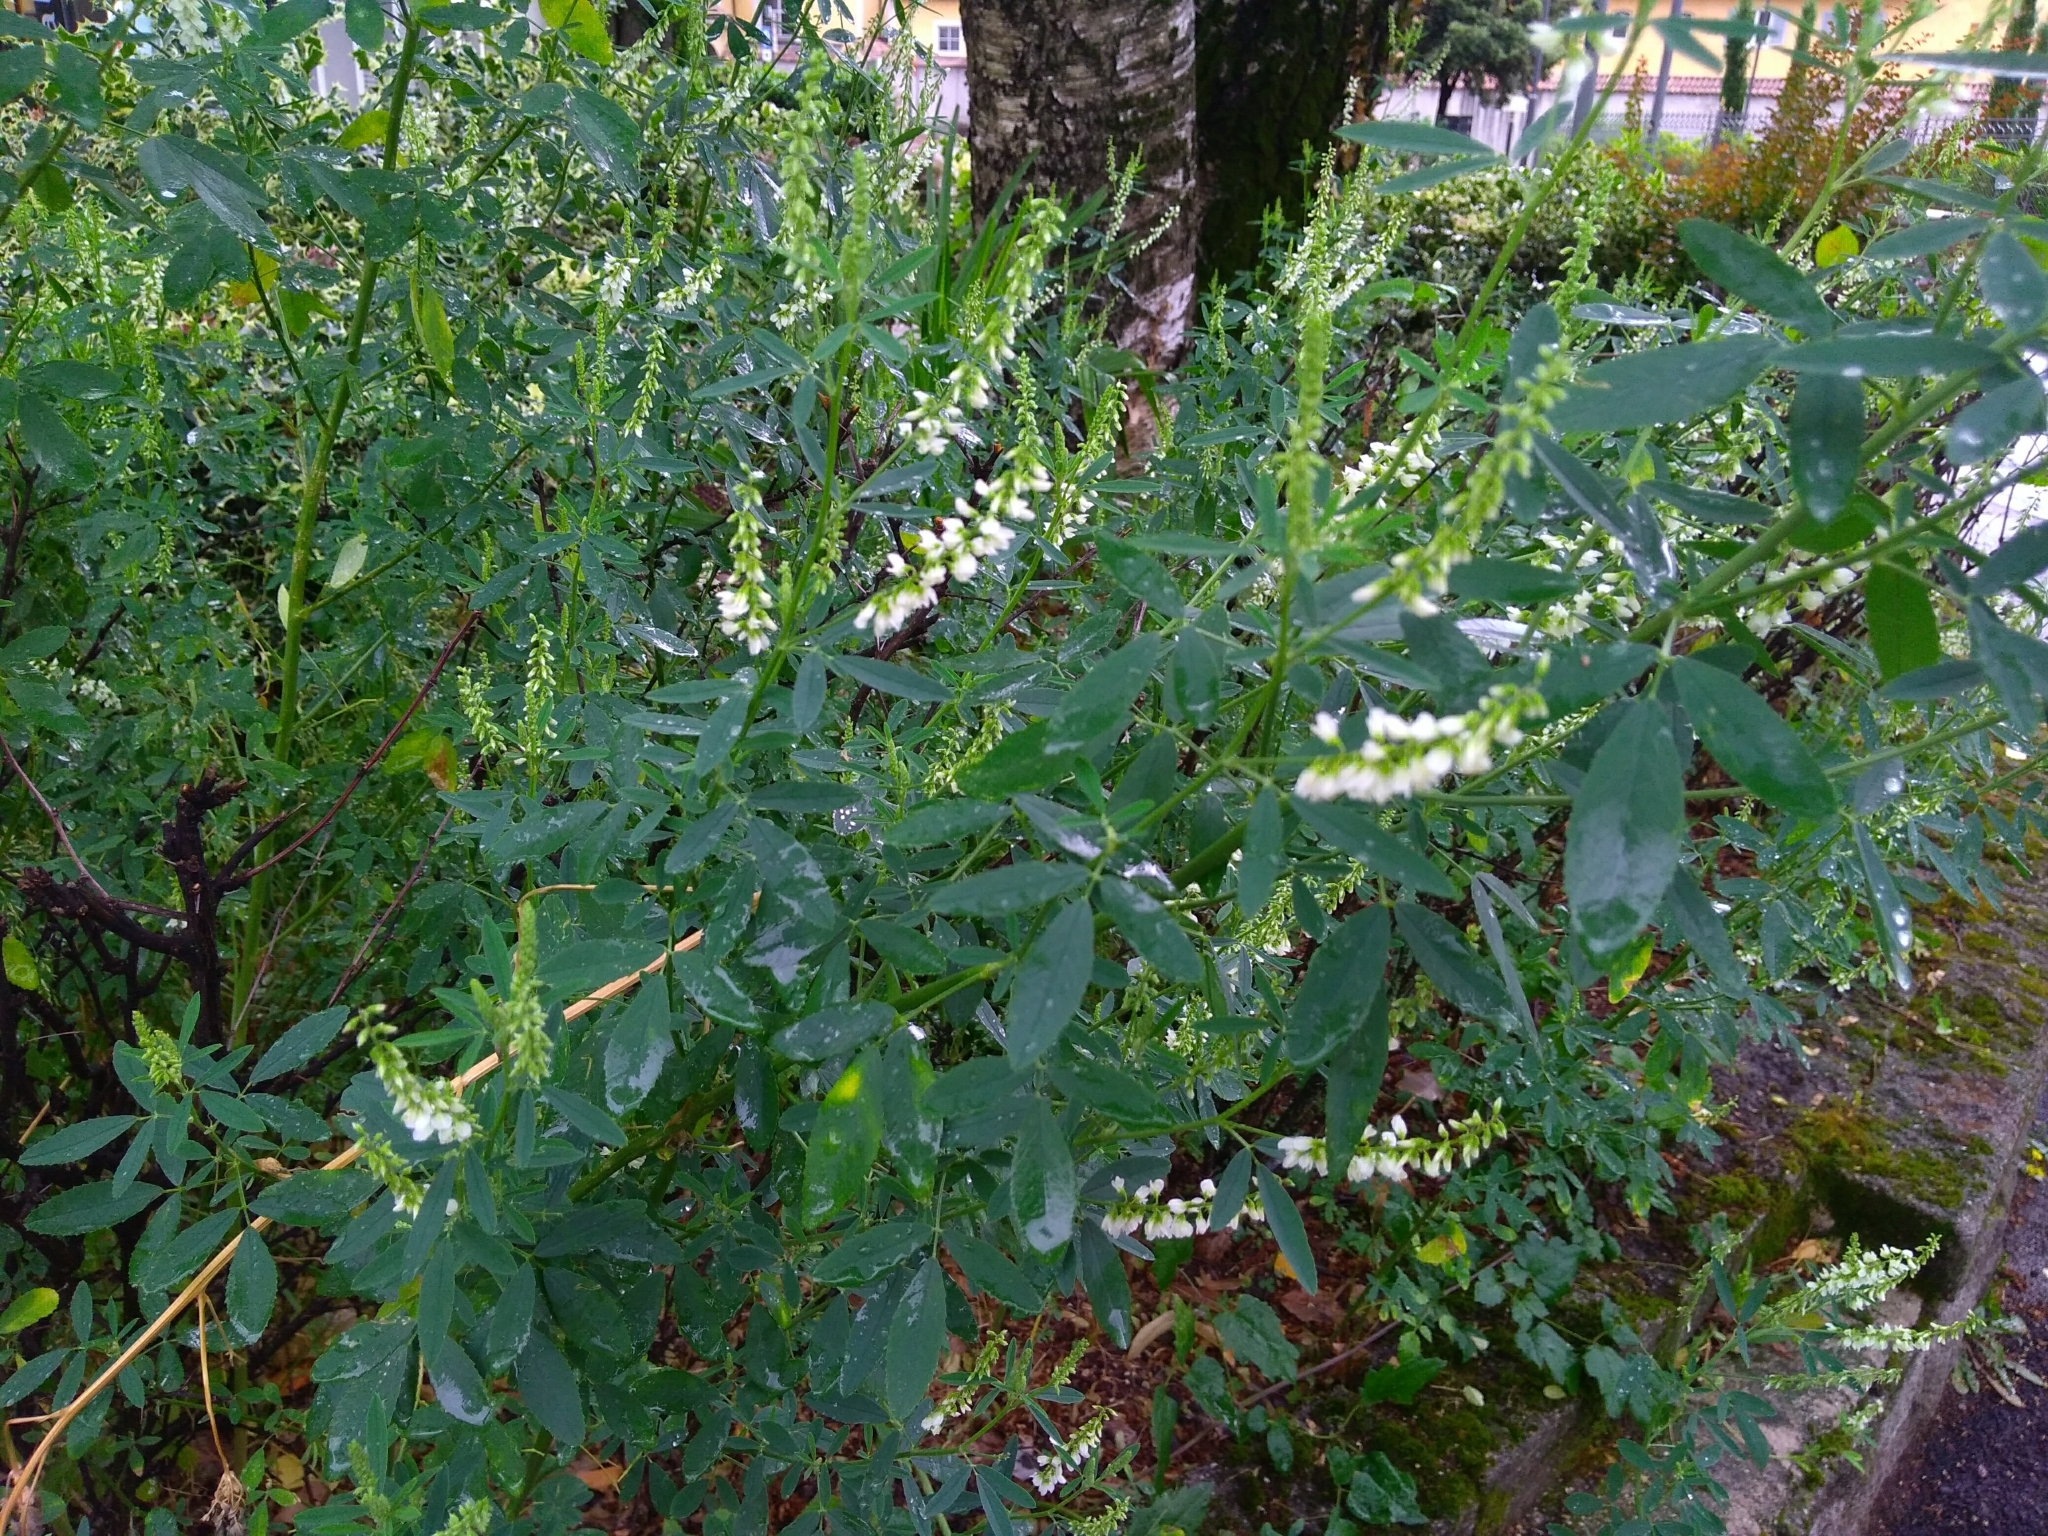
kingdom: Plantae
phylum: Tracheophyta
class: Magnoliopsida
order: Fabales
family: Fabaceae
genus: Melilotus
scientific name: Melilotus albus
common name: White melilot
